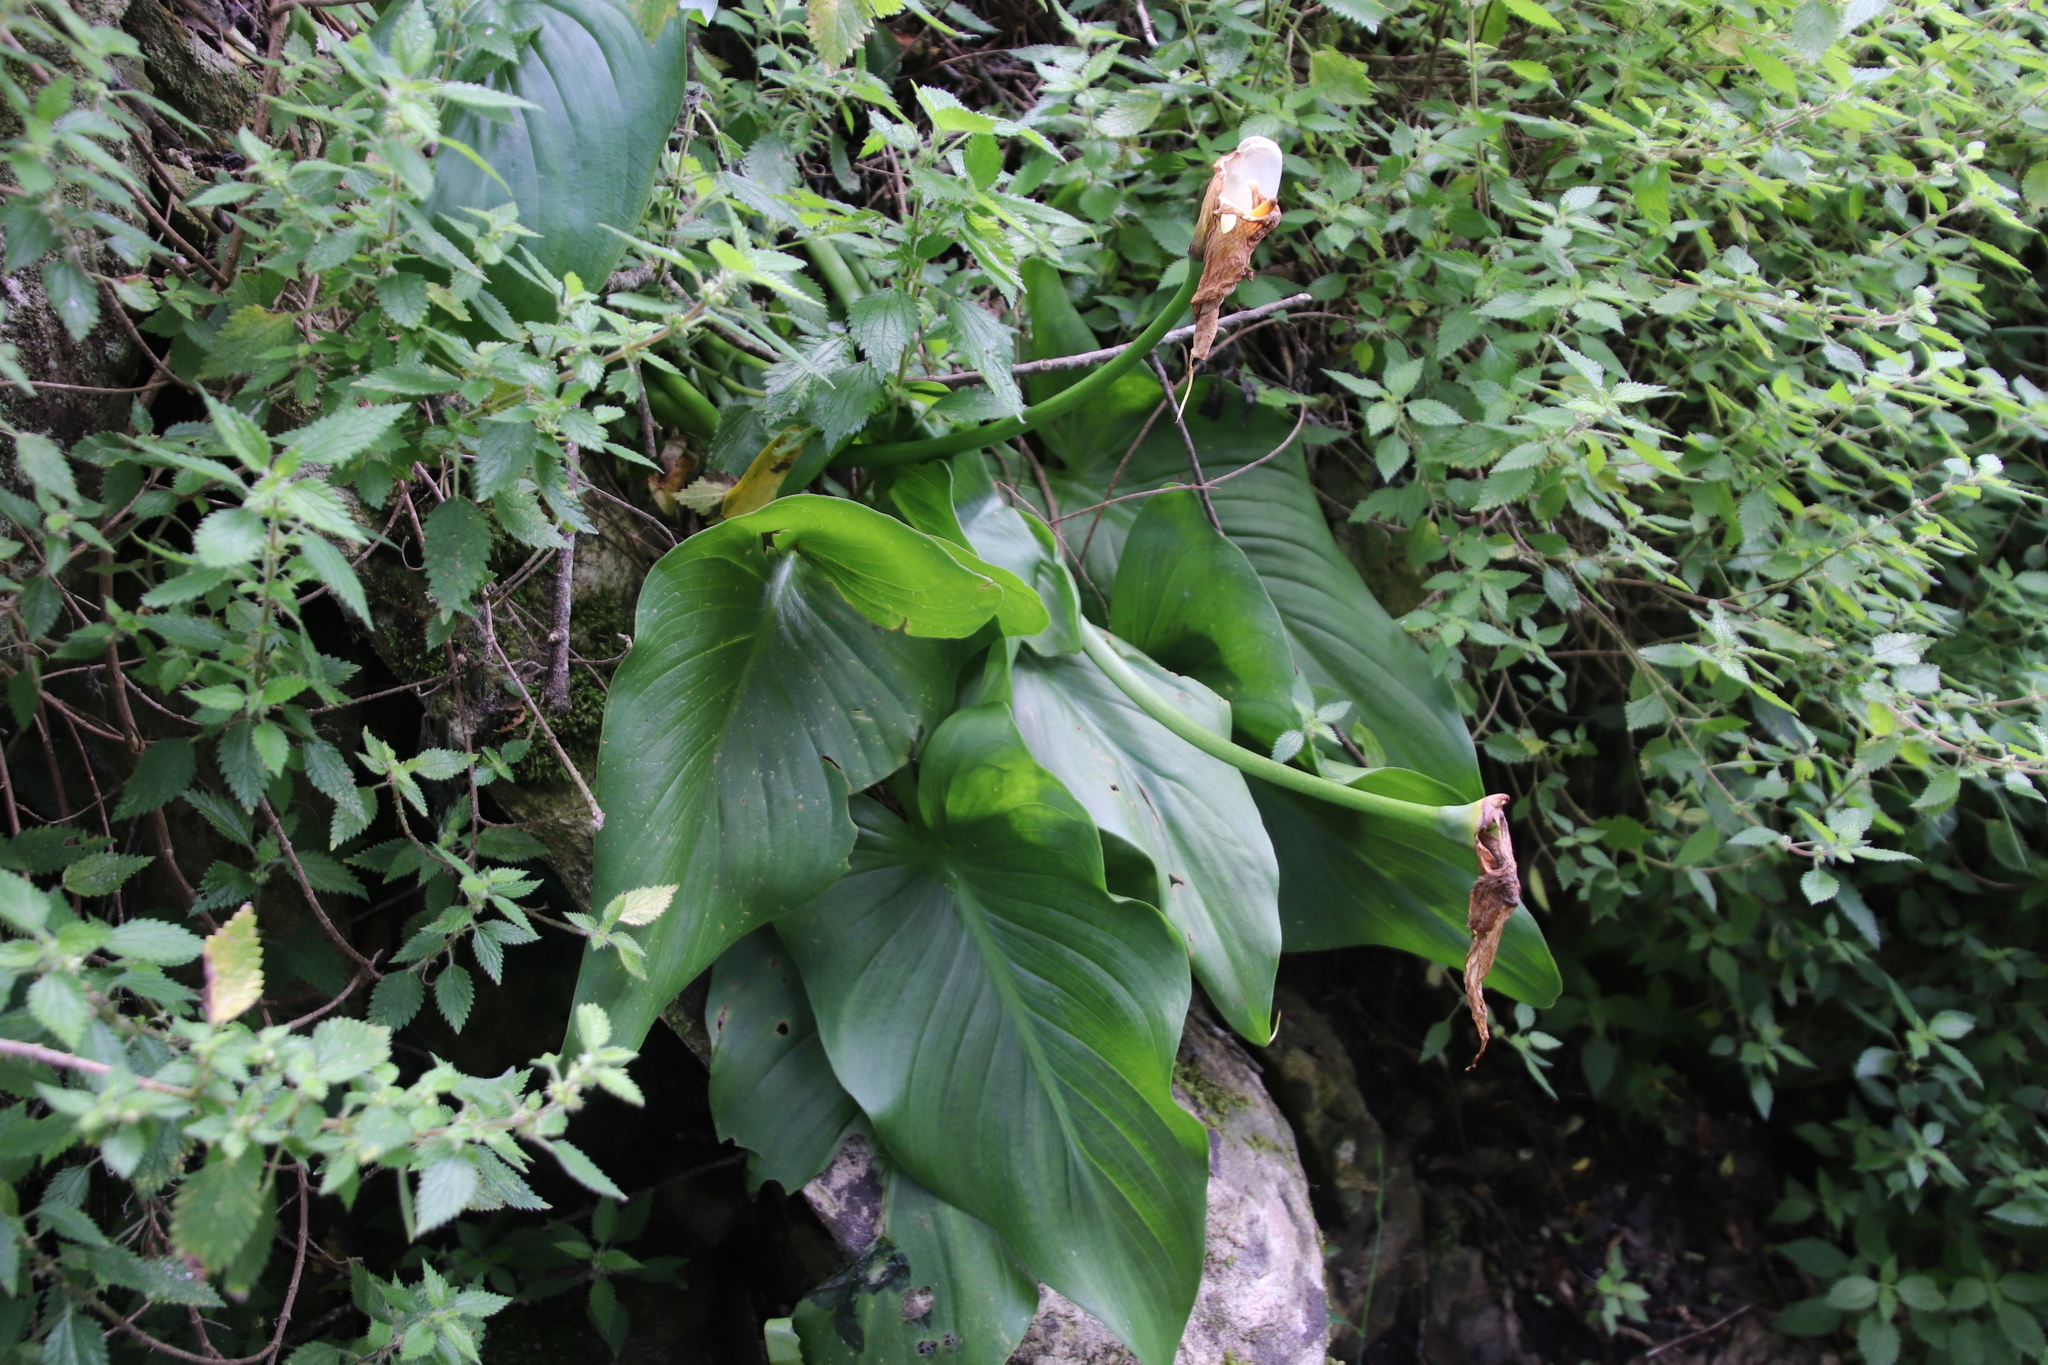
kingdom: Plantae
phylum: Tracheophyta
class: Liliopsida
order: Alismatales
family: Araceae
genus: Zantedeschia
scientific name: Zantedeschia aethiopica
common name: Altar-lily
